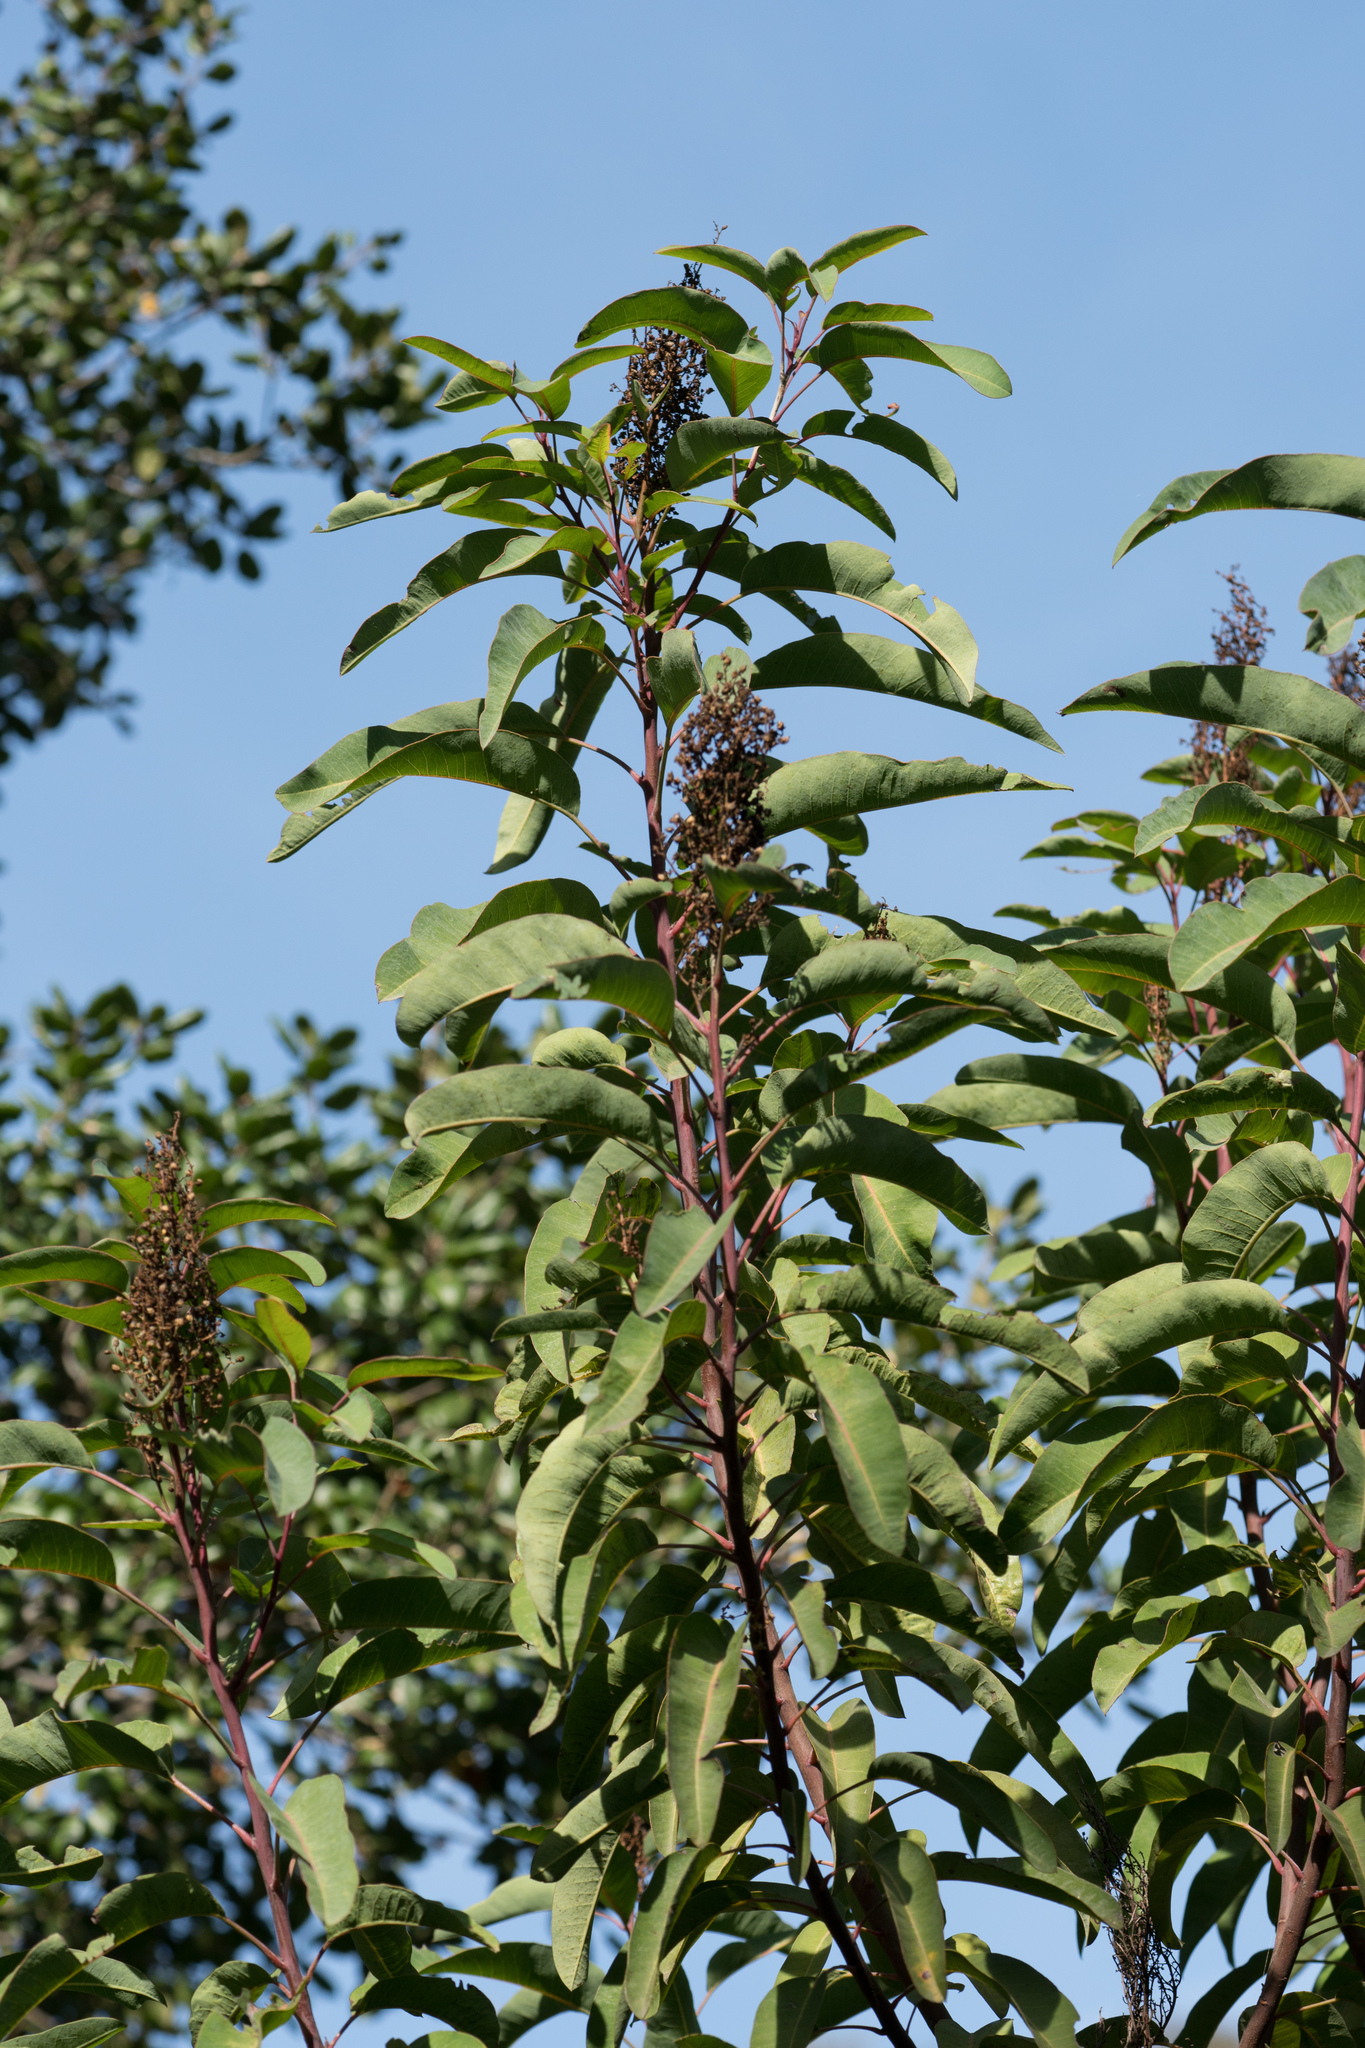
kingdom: Plantae
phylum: Tracheophyta
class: Magnoliopsida
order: Sapindales
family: Anacardiaceae
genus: Malosma
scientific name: Malosma laurina
